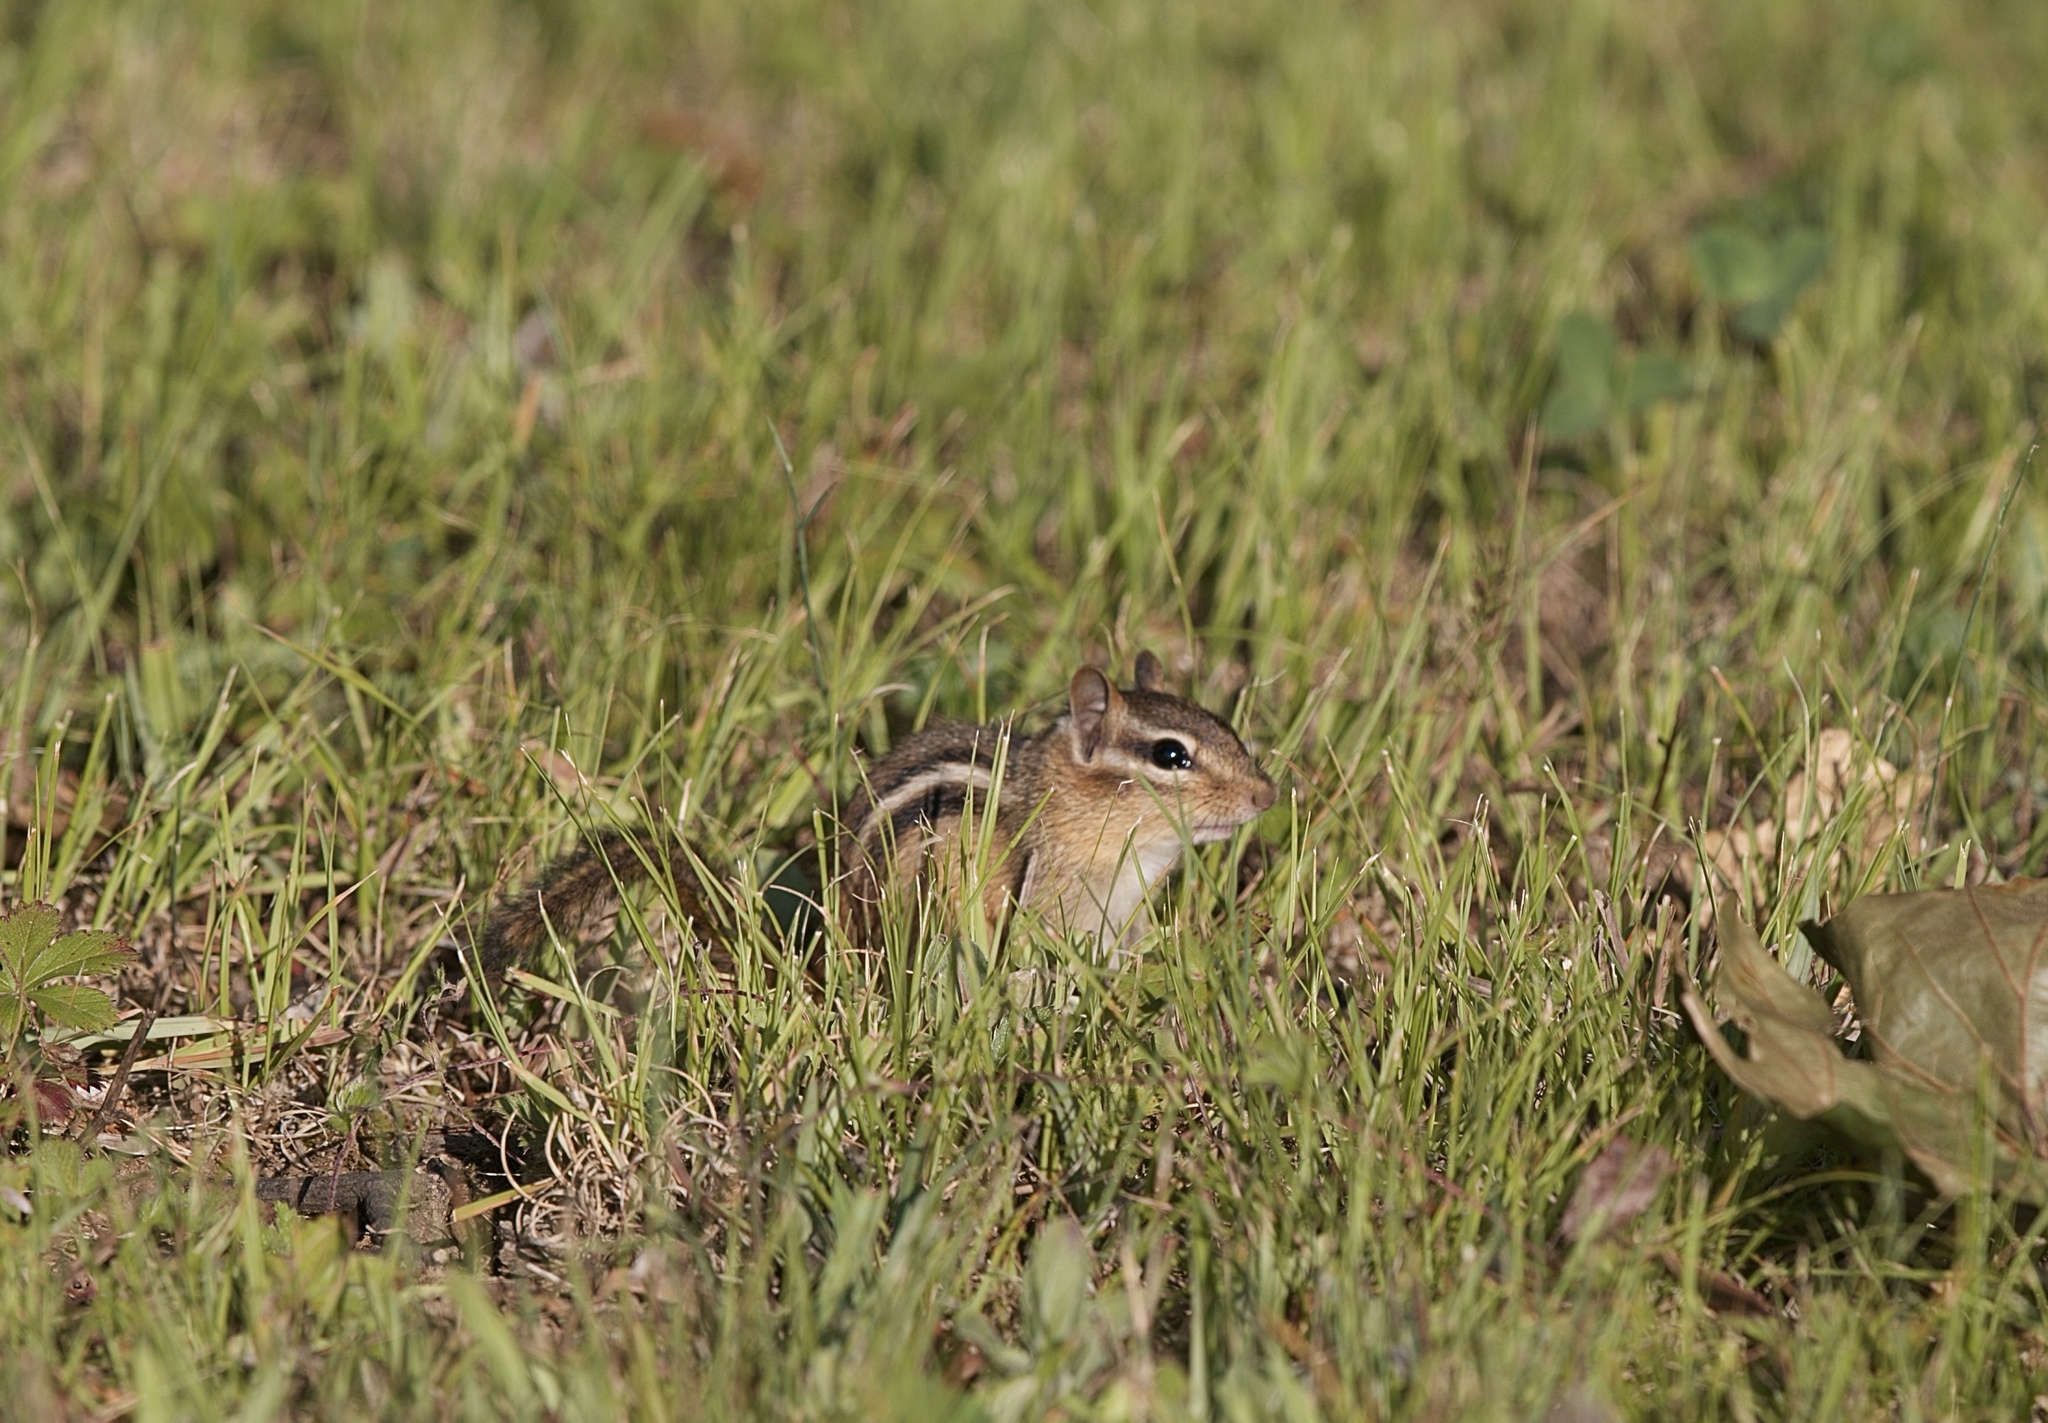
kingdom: Animalia
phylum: Chordata
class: Mammalia
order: Rodentia
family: Sciuridae
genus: Tamias
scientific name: Tamias striatus
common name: Eastern chipmunk
